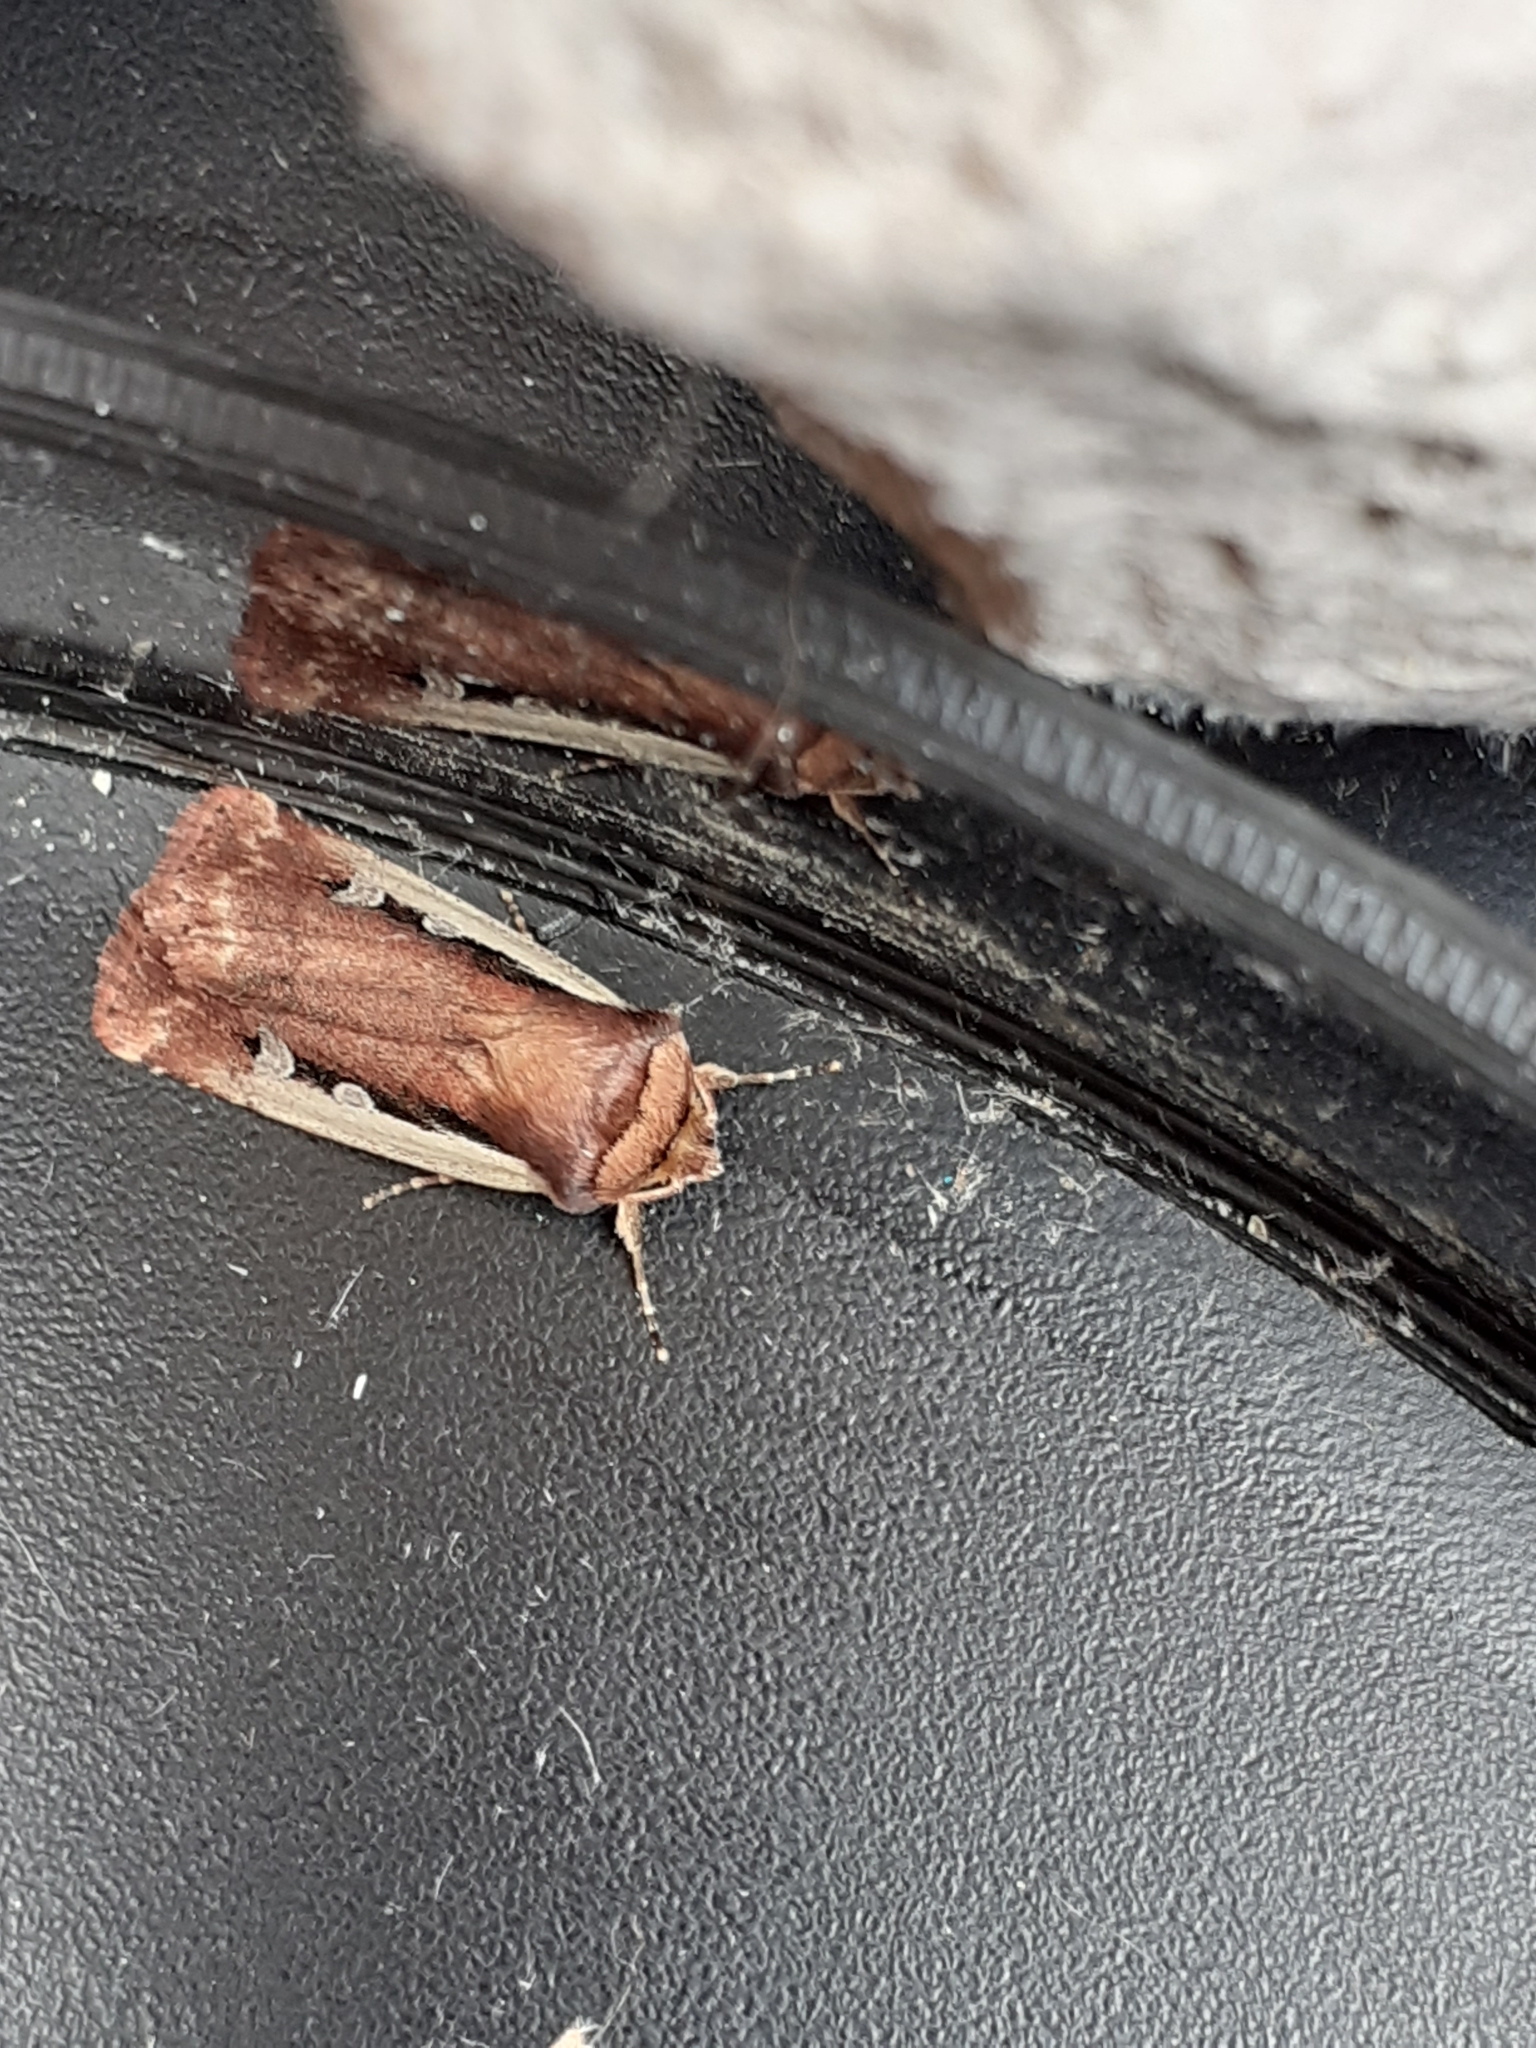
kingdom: Animalia
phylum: Arthropoda
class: Insecta
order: Lepidoptera
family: Noctuidae
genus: Ochropleura
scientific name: Ochropleura plecta
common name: Flame shoulder
